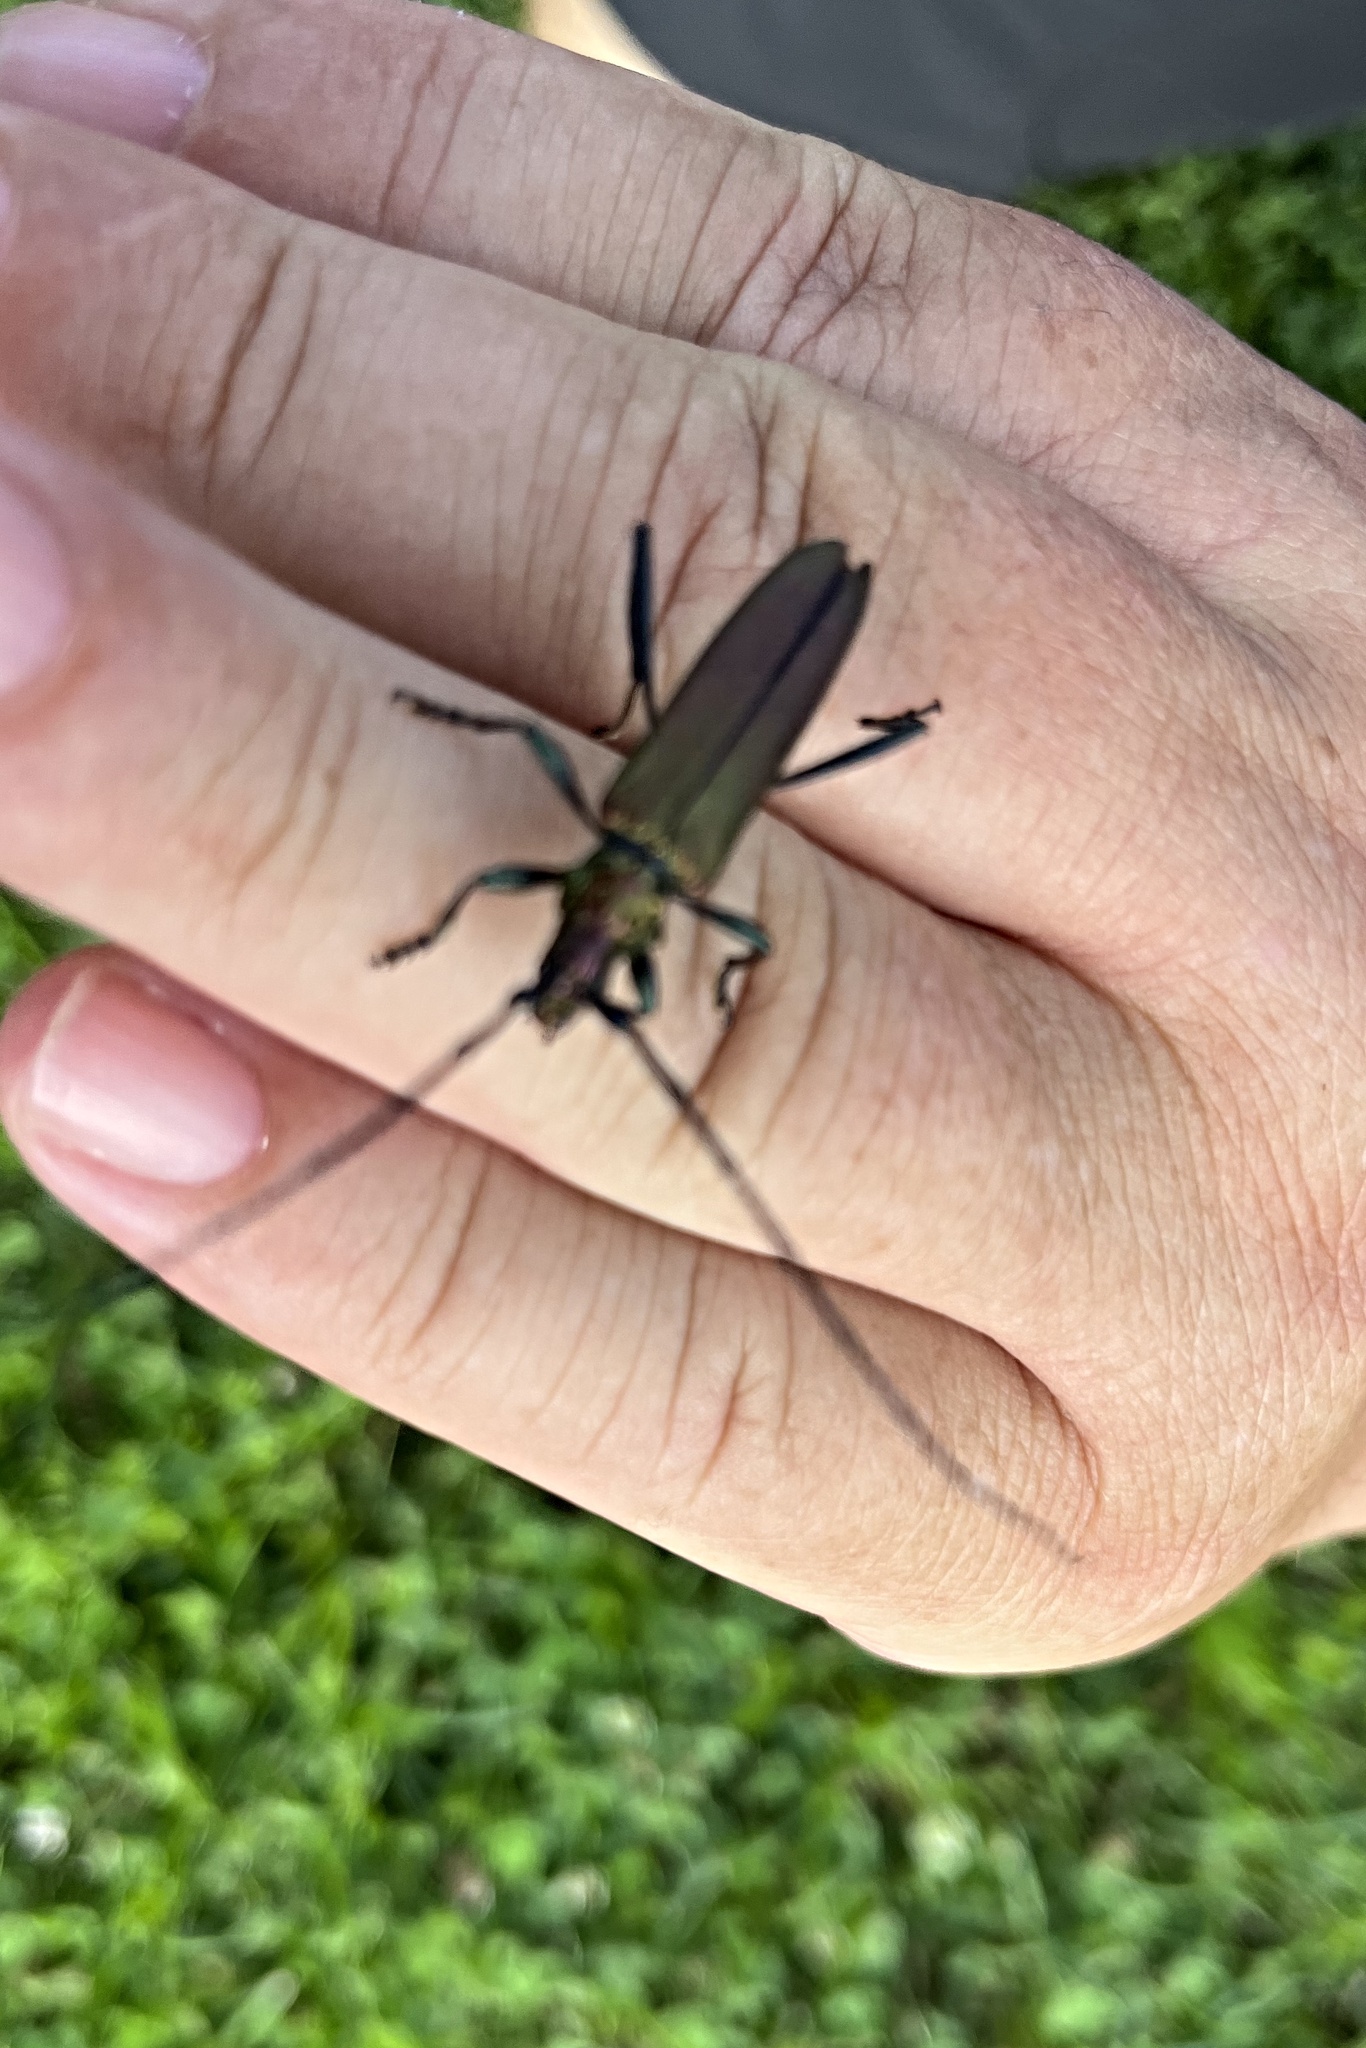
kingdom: Animalia
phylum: Arthropoda
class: Insecta
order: Coleoptera
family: Cerambycidae
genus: Aromia
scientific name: Aromia moschata
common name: Musk beetle
